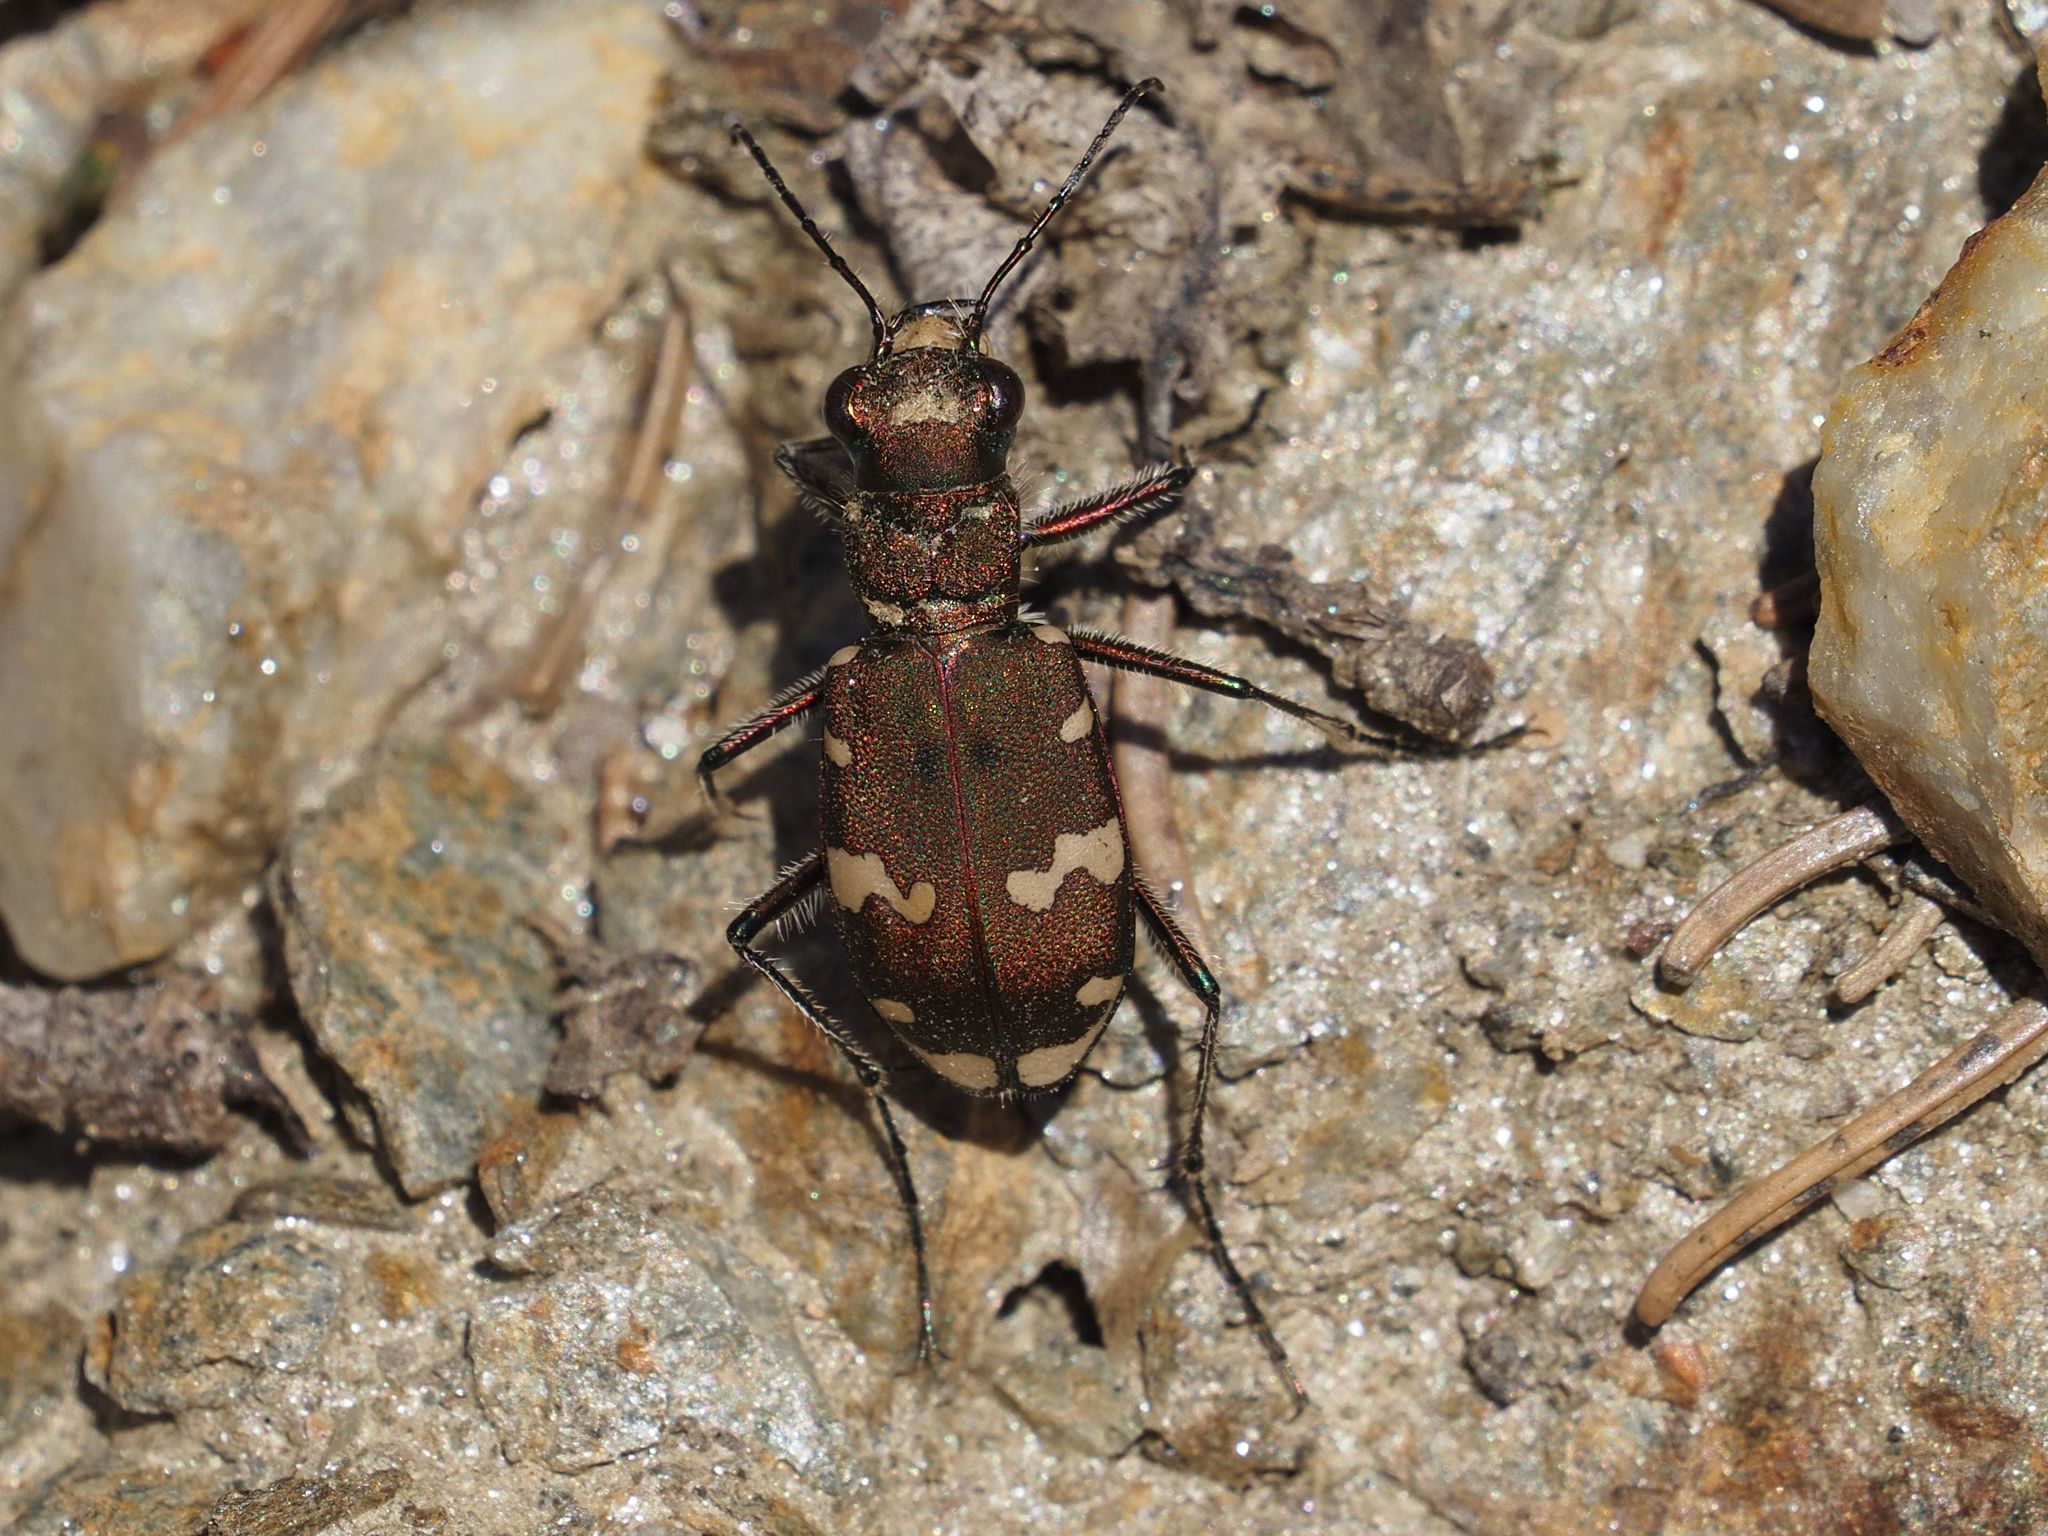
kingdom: Animalia
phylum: Arthropoda
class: Insecta
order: Coleoptera
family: Carabidae
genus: Cicindela
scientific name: Cicindela sylvicola
